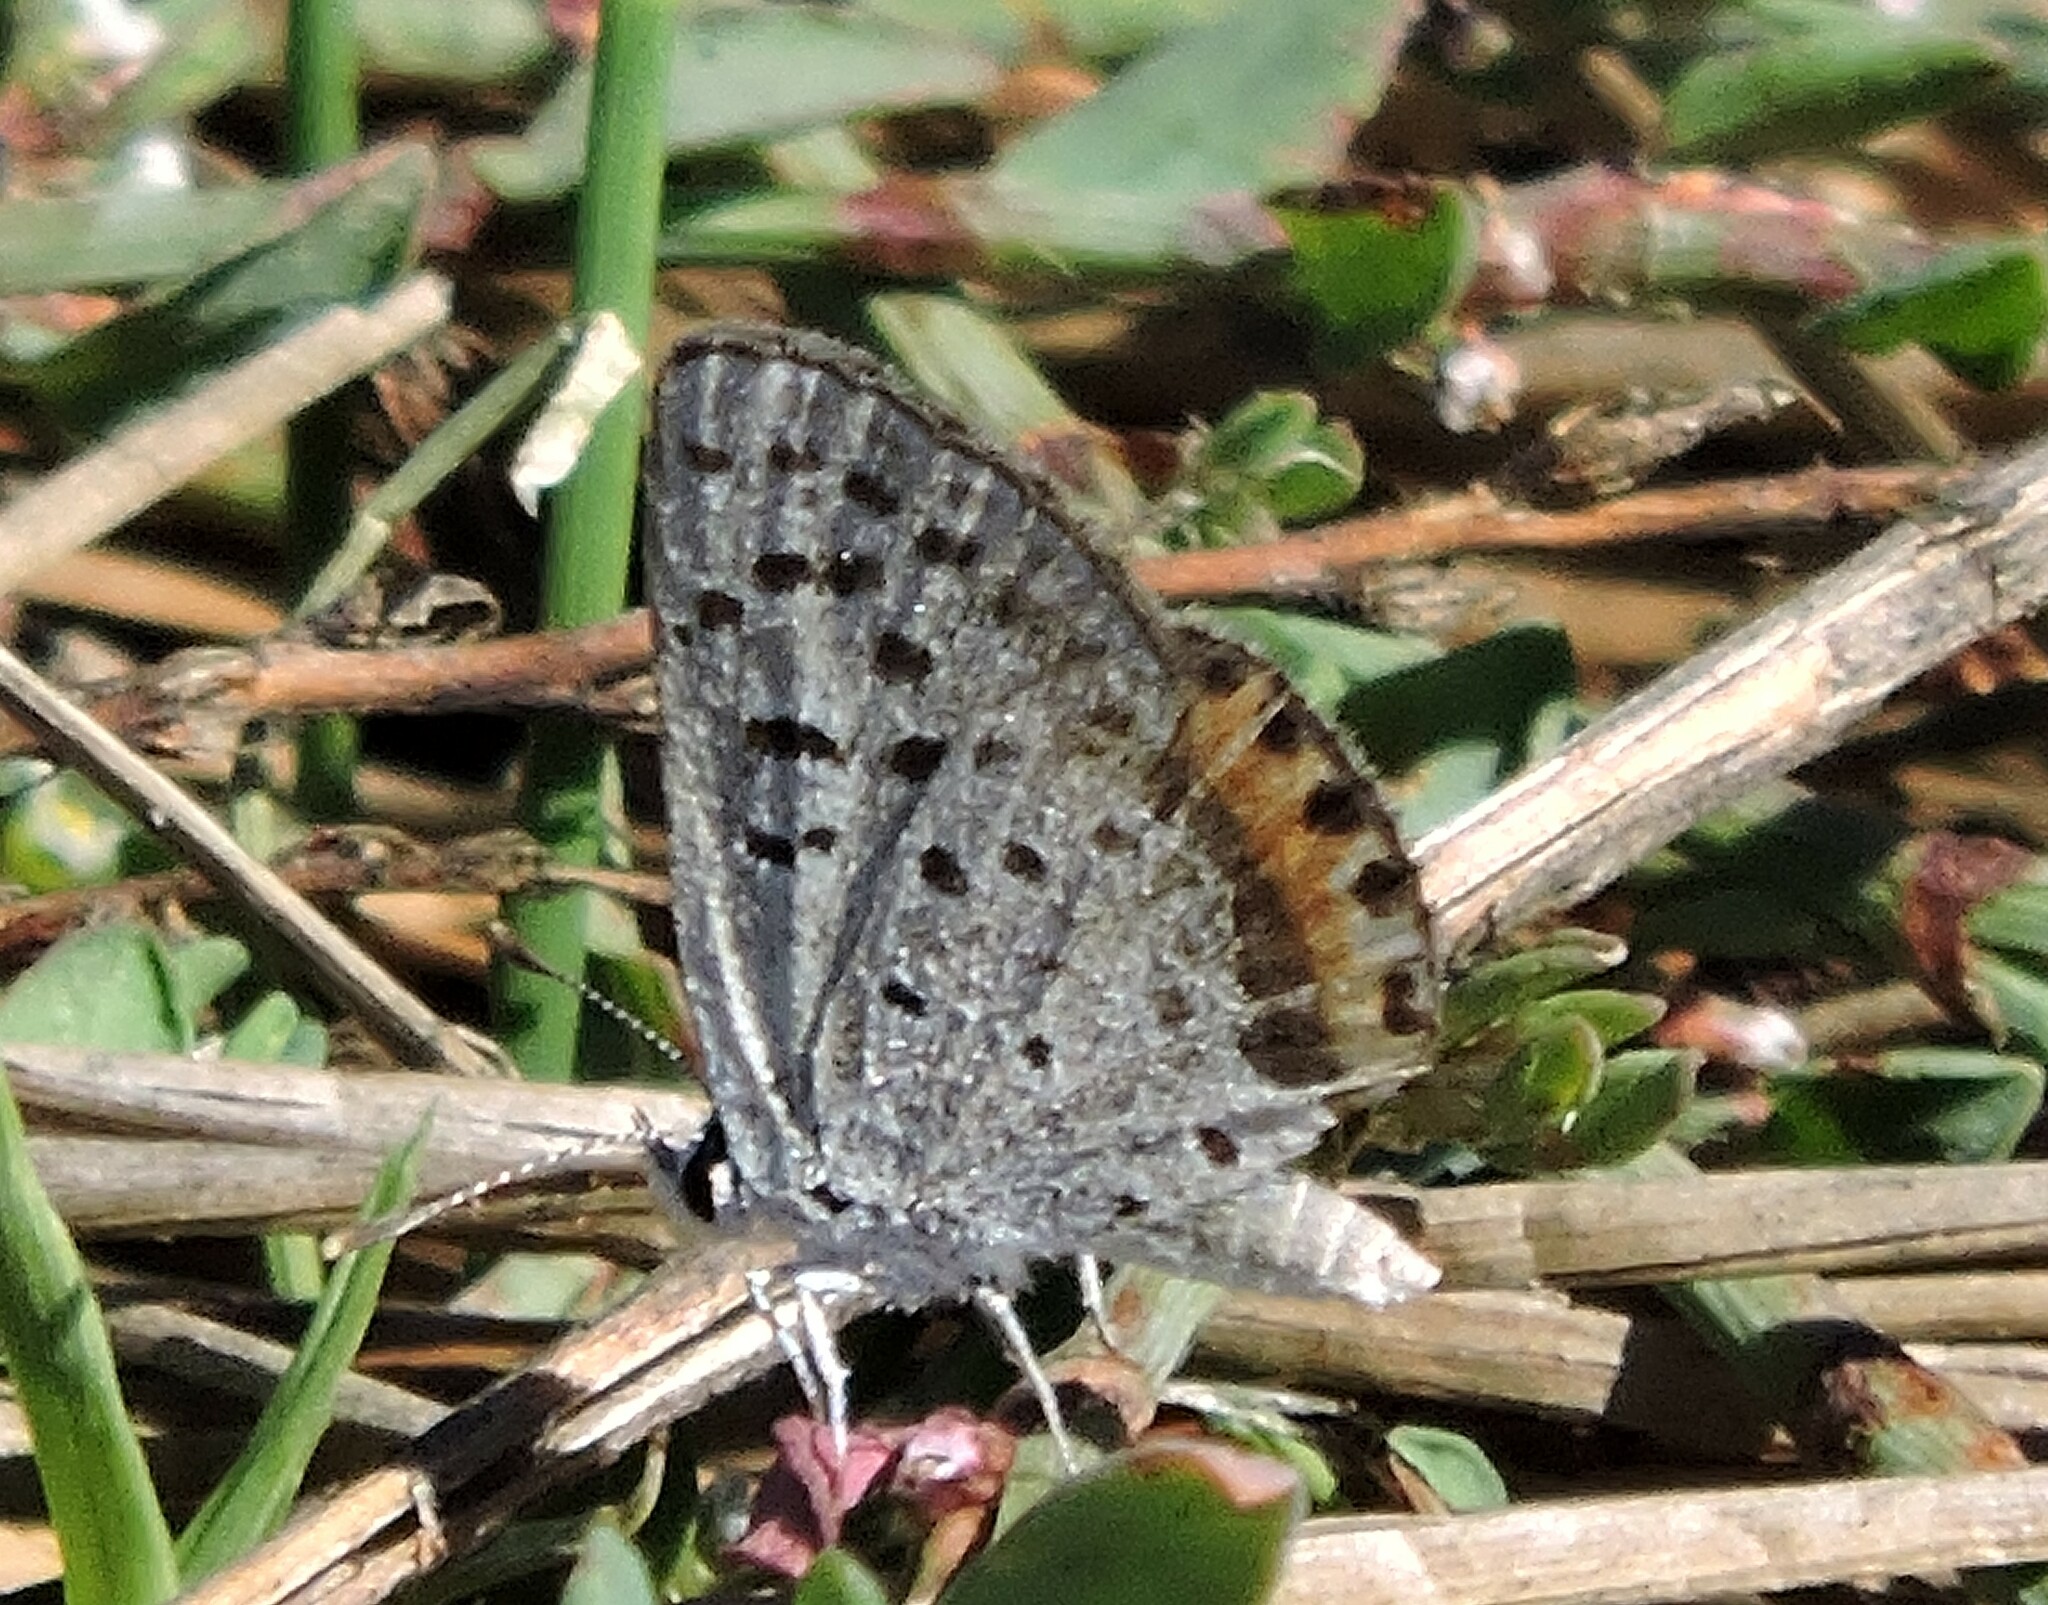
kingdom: Animalia
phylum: Arthropoda
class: Insecta
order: Lepidoptera
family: Lycaenidae
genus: Icaricia
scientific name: Icaricia acmon
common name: Acmon blue
